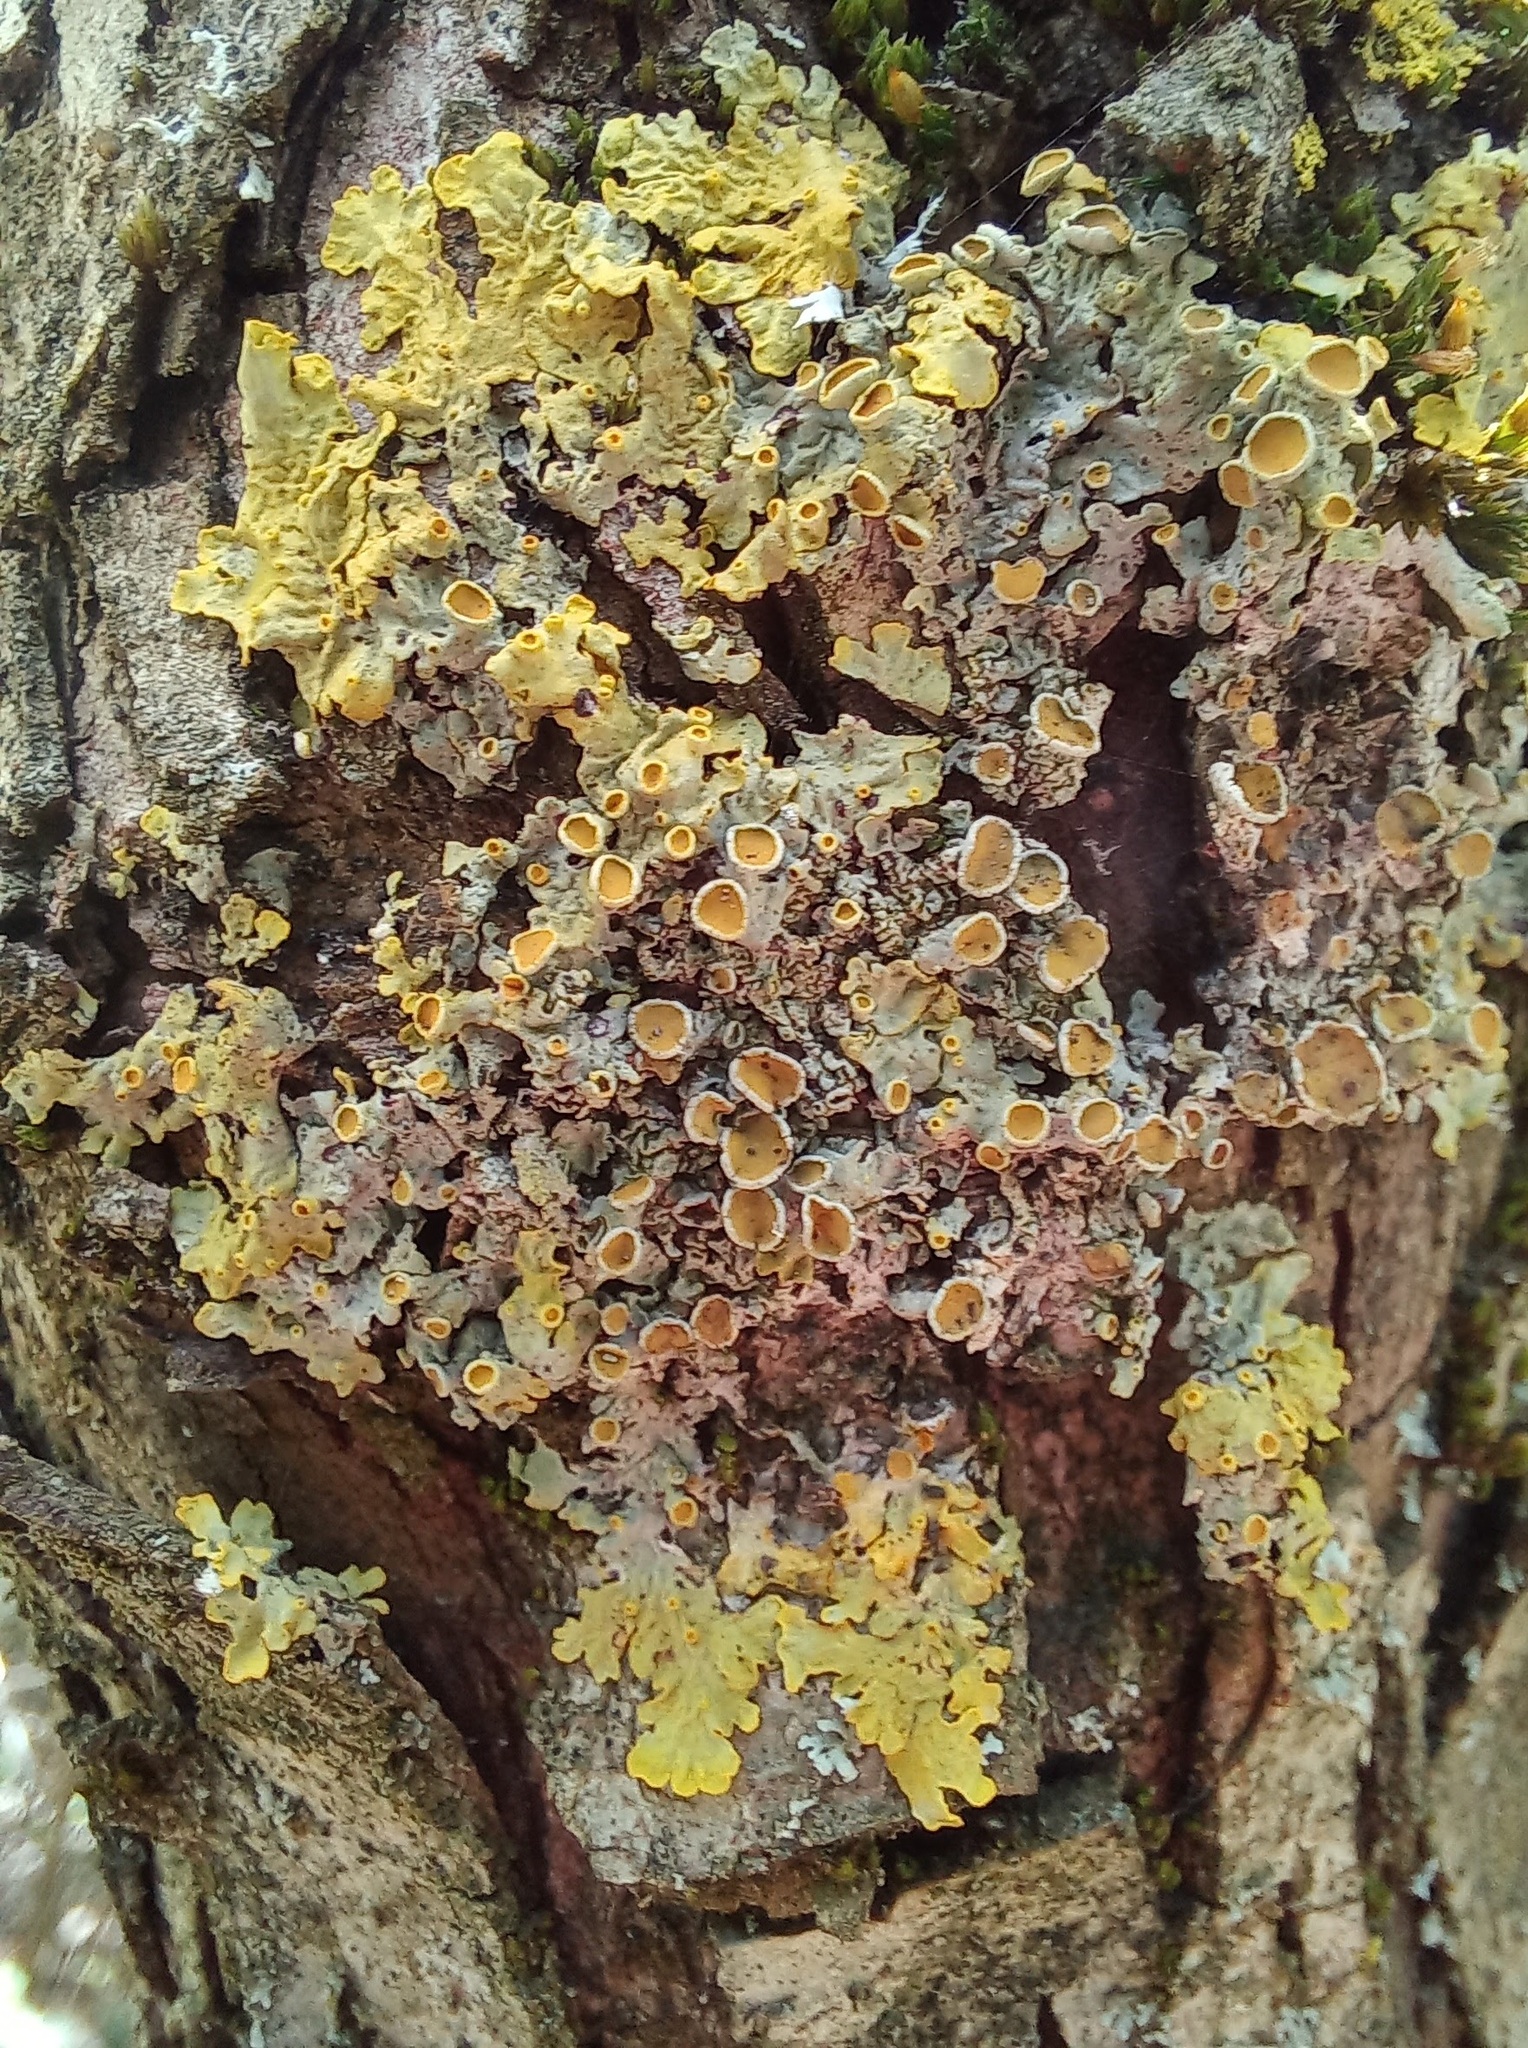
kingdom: Fungi
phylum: Ascomycota
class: Lecanoromycetes
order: Teloschistales
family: Teloschistaceae
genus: Xanthoria
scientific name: Xanthoria parietina
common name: Common orange lichen
